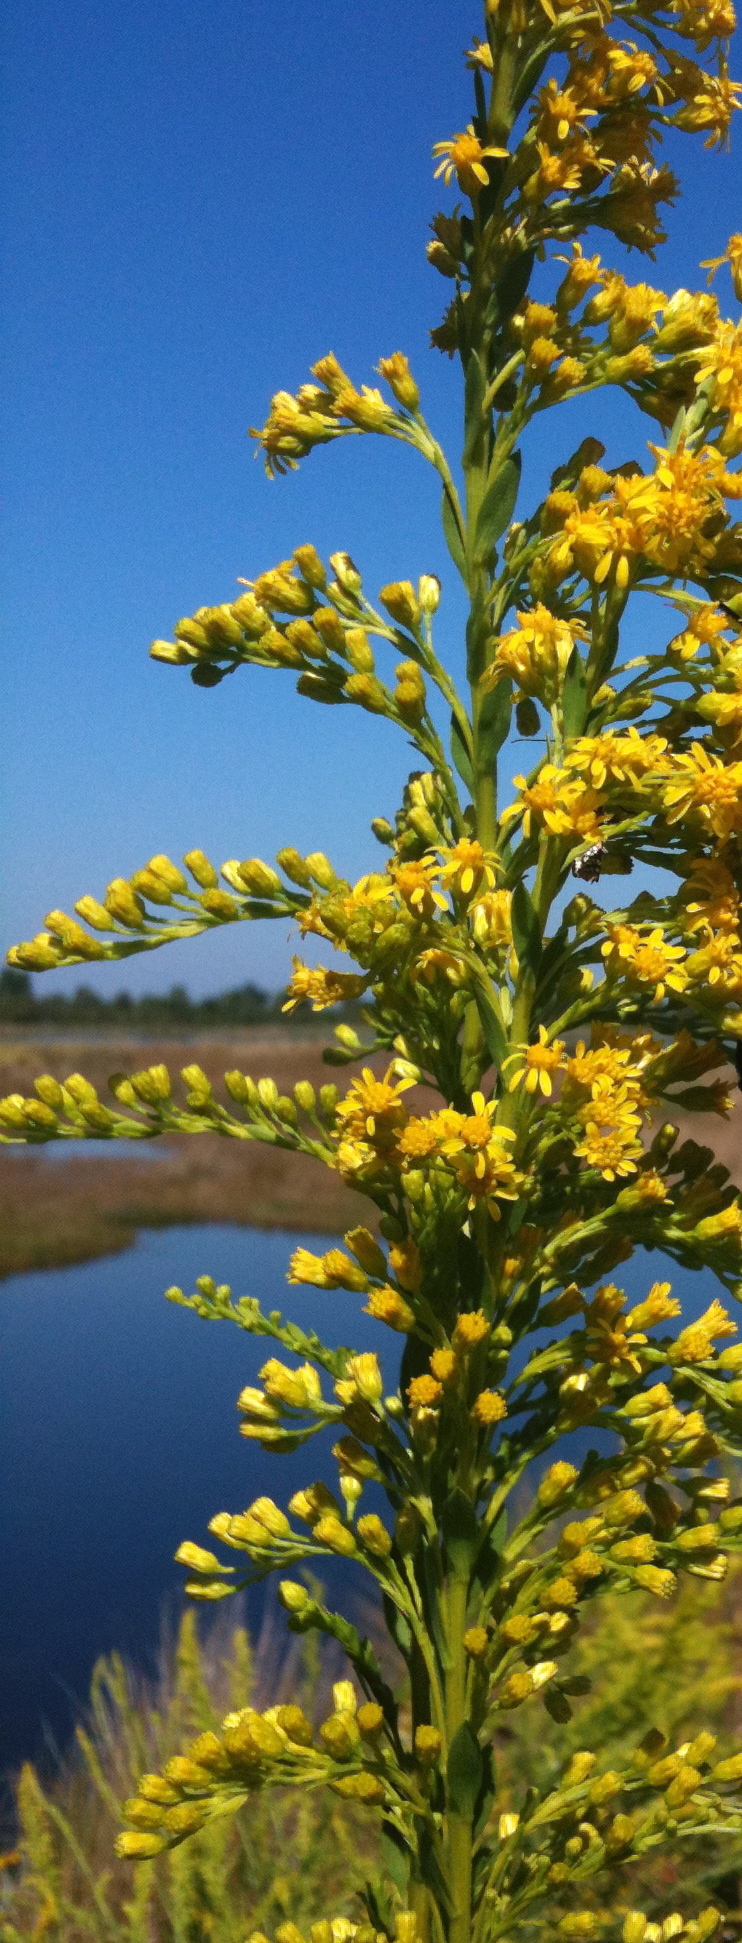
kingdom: Plantae
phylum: Tracheophyta
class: Magnoliopsida
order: Asterales
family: Asteraceae
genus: Solidago
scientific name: Solidago mexicana
